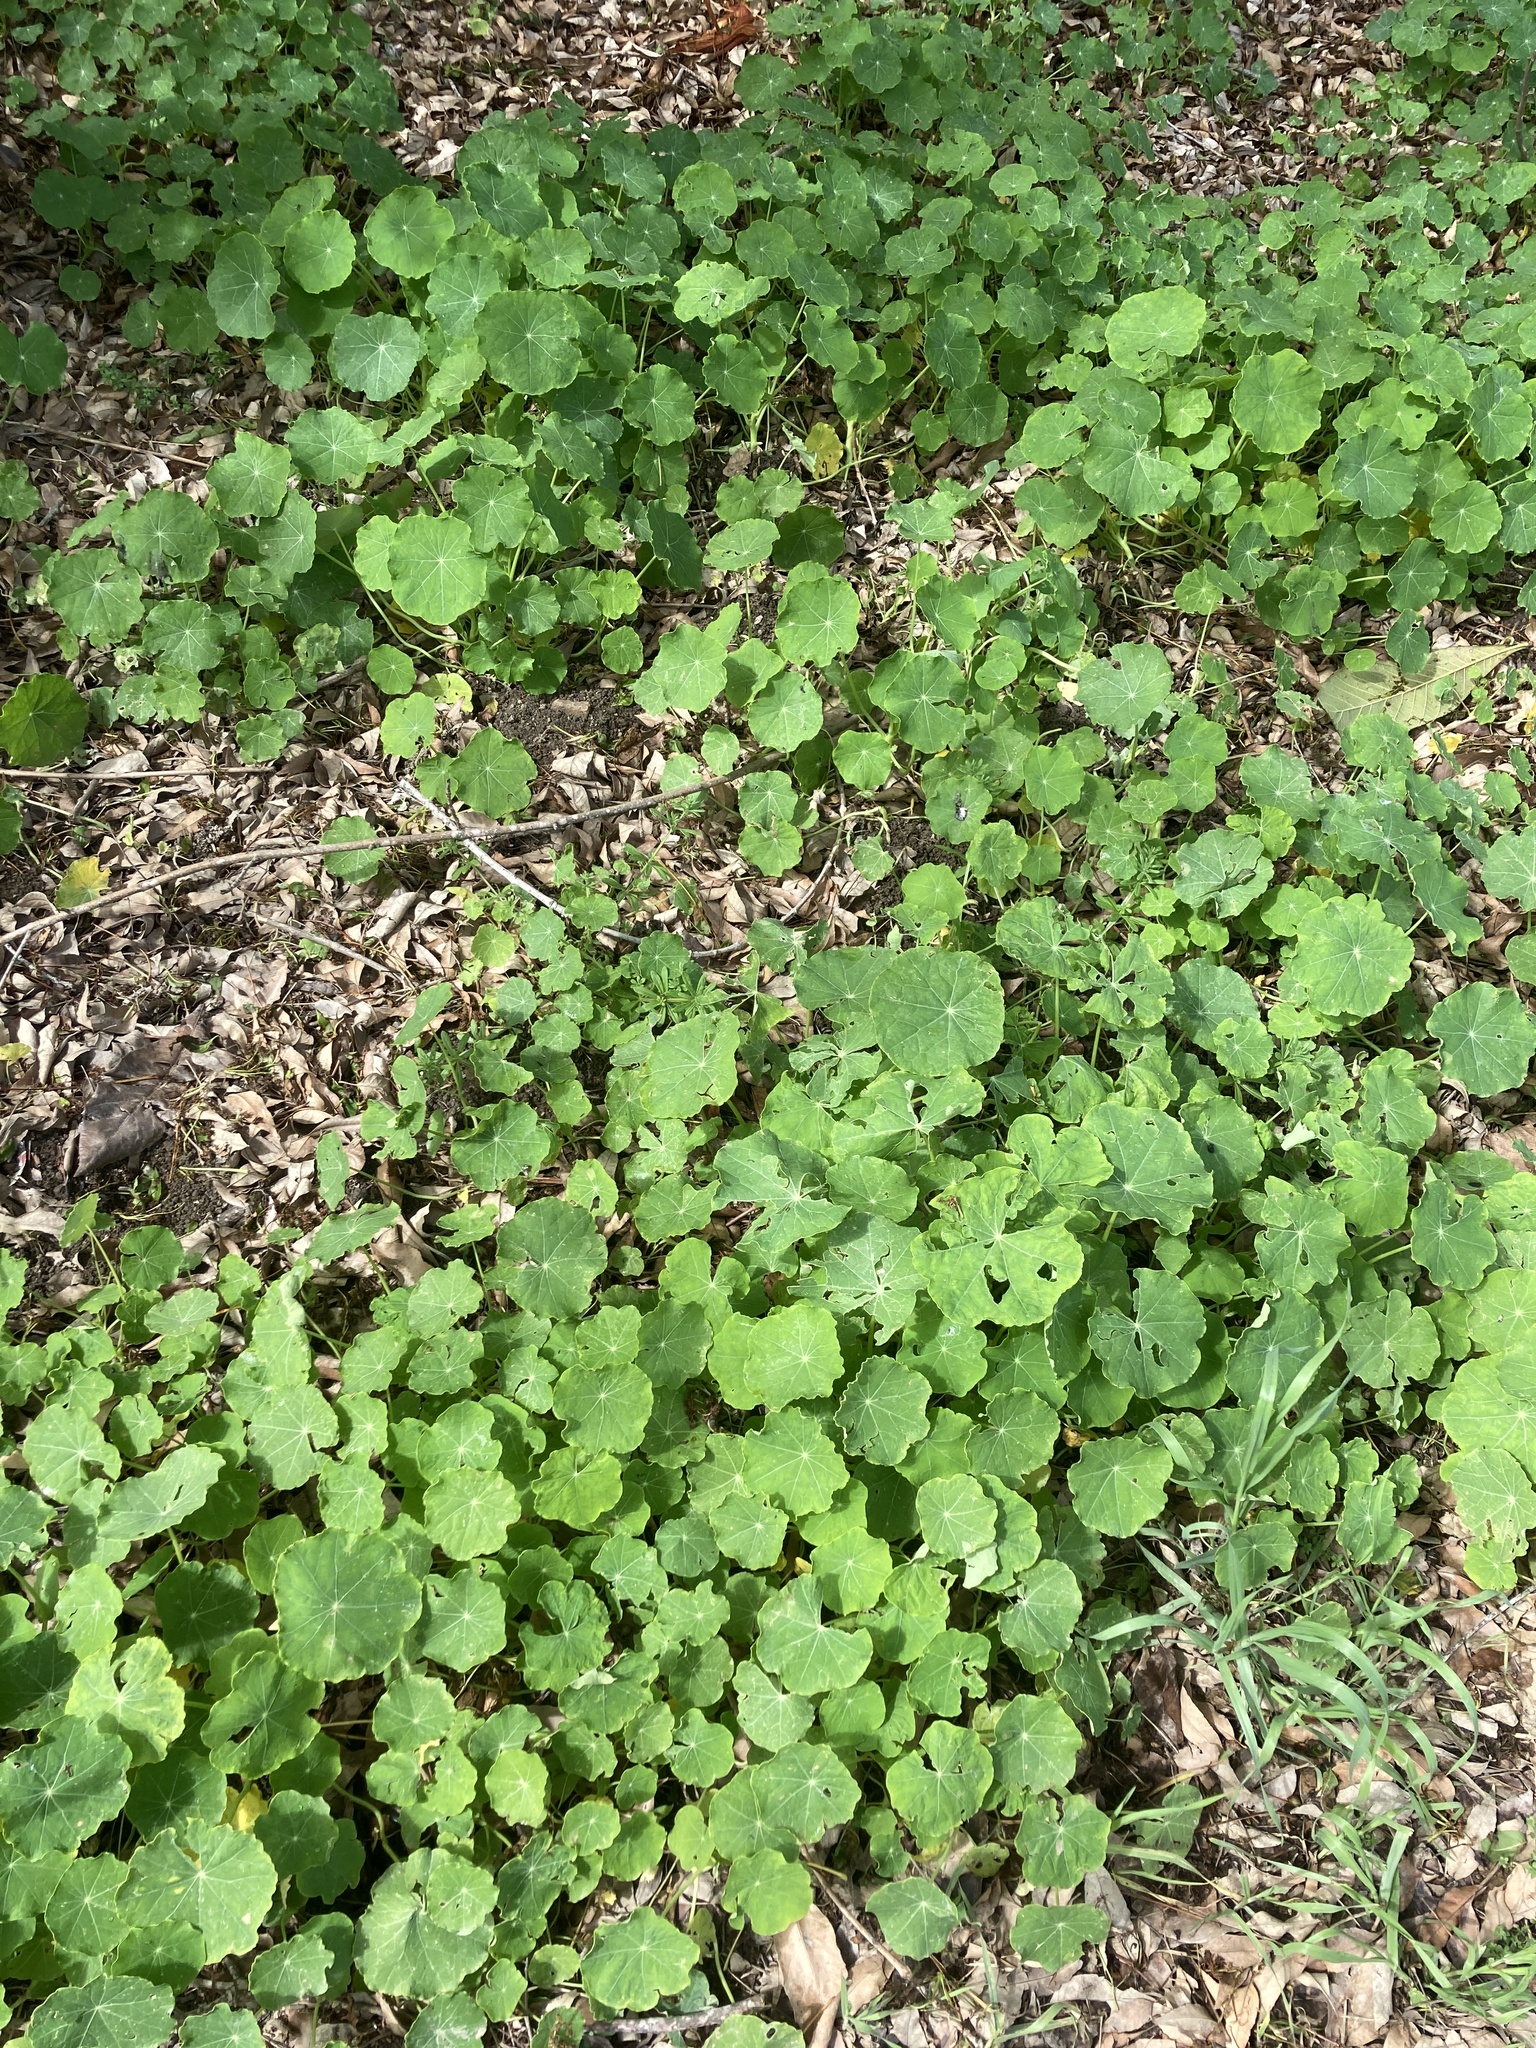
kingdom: Plantae
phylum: Tracheophyta
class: Magnoliopsida
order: Brassicales
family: Tropaeolaceae
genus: Tropaeolum
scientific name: Tropaeolum majus
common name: Nasturtium
